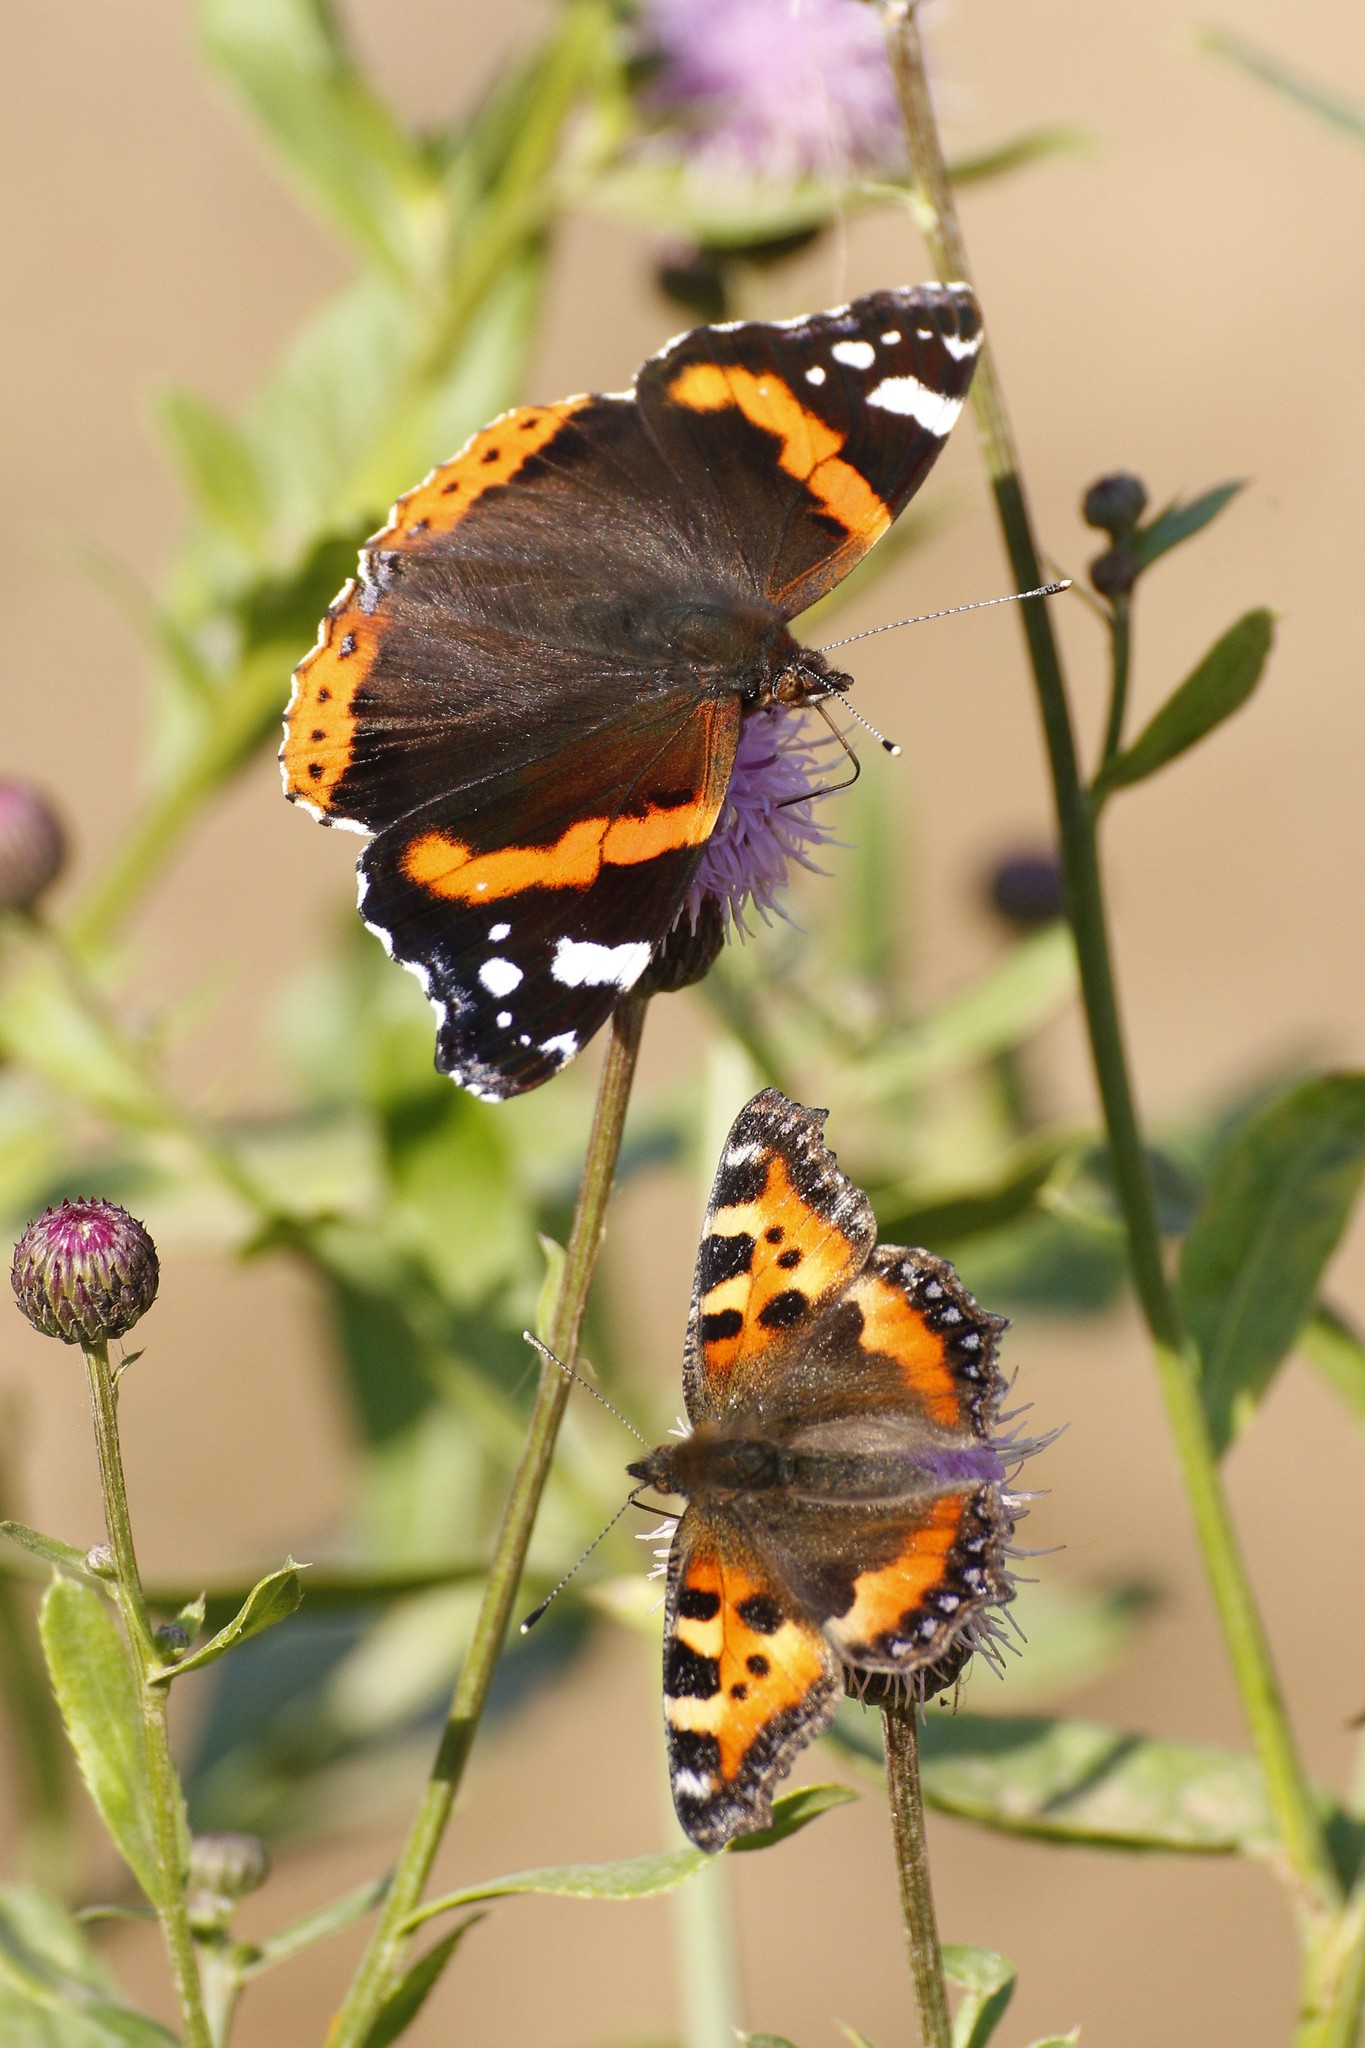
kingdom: Animalia
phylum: Arthropoda
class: Insecta
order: Lepidoptera
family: Nymphalidae
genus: Aglais
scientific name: Aglais urticae
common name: Small tortoiseshell
